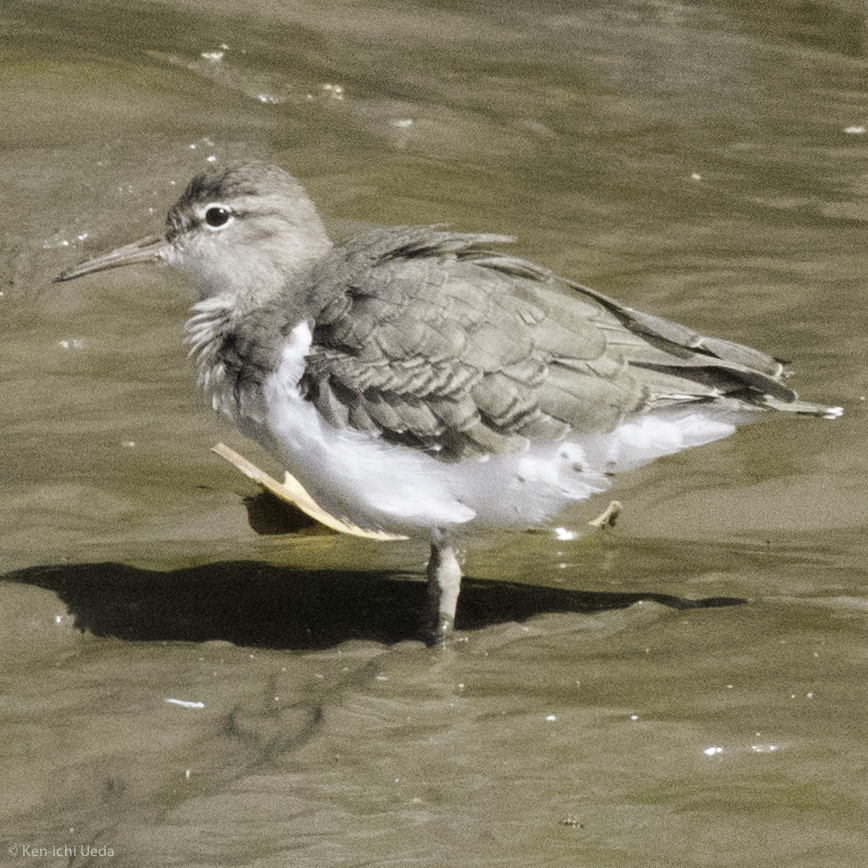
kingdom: Animalia
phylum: Chordata
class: Aves
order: Charadriiformes
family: Scolopacidae
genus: Actitis
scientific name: Actitis macularius
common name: Spotted sandpiper
